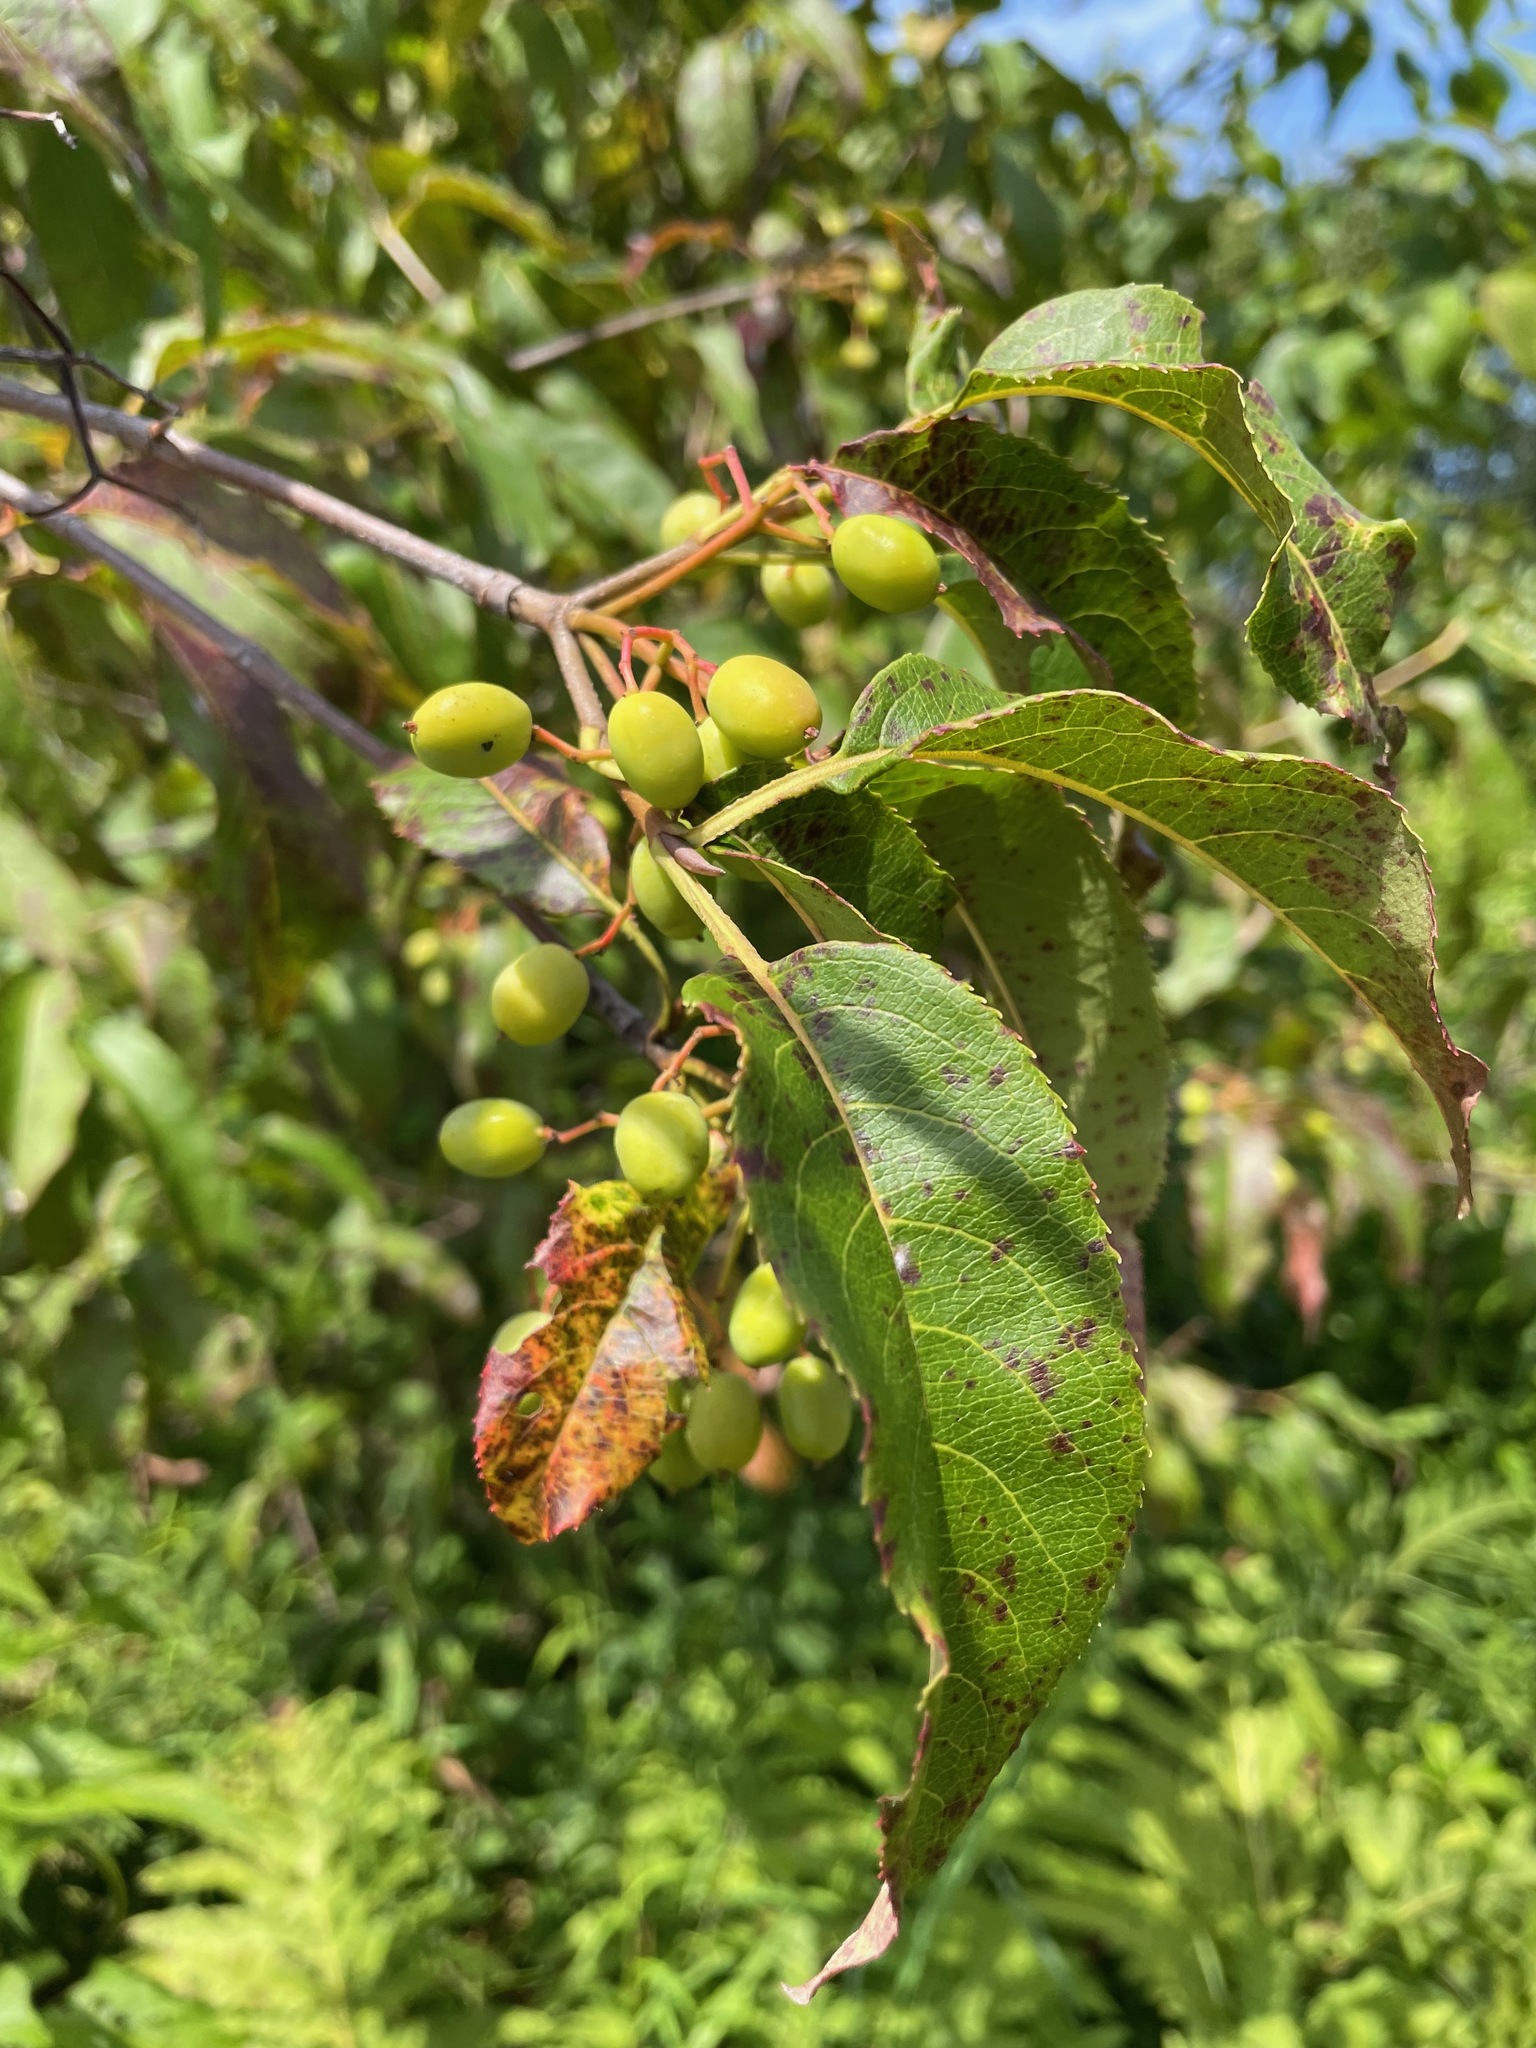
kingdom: Plantae
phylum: Tracheophyta
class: Magnoliopsida
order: Dipsacales
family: Viburnaceae
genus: Viburnum
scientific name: Viburnum lentago
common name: Black haw
